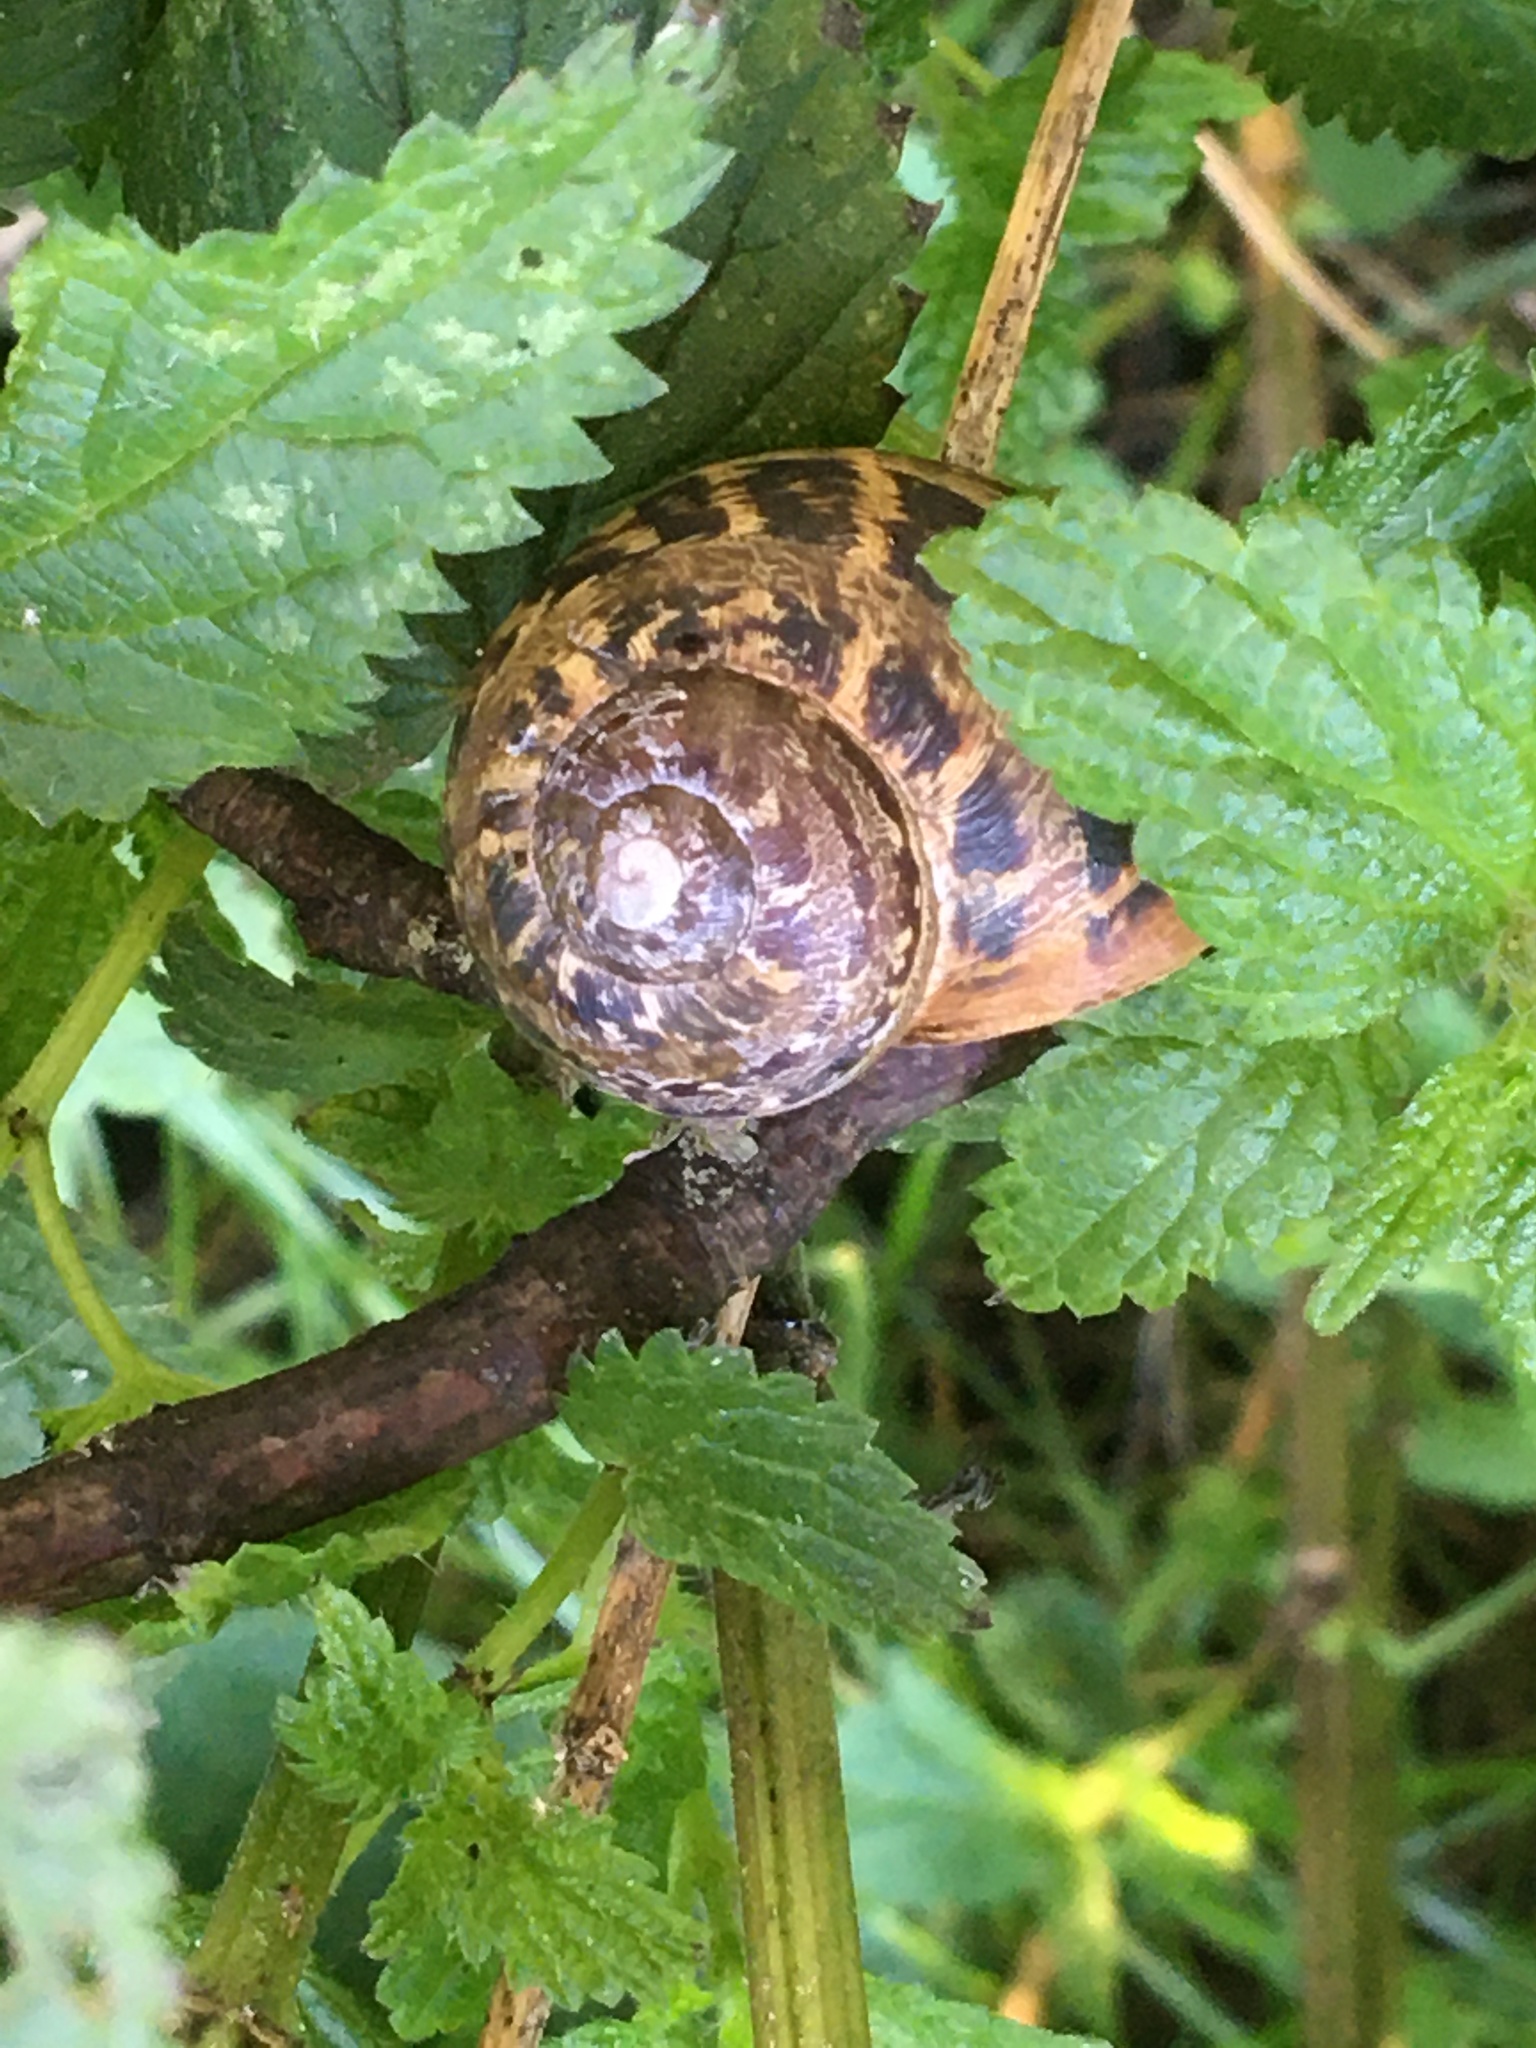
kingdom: Animalia
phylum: Mollusca
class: Gastropoda
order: Stylommatophora
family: Helicidae
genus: Cornu
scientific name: Cornu aspersum
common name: Brown garden snail
